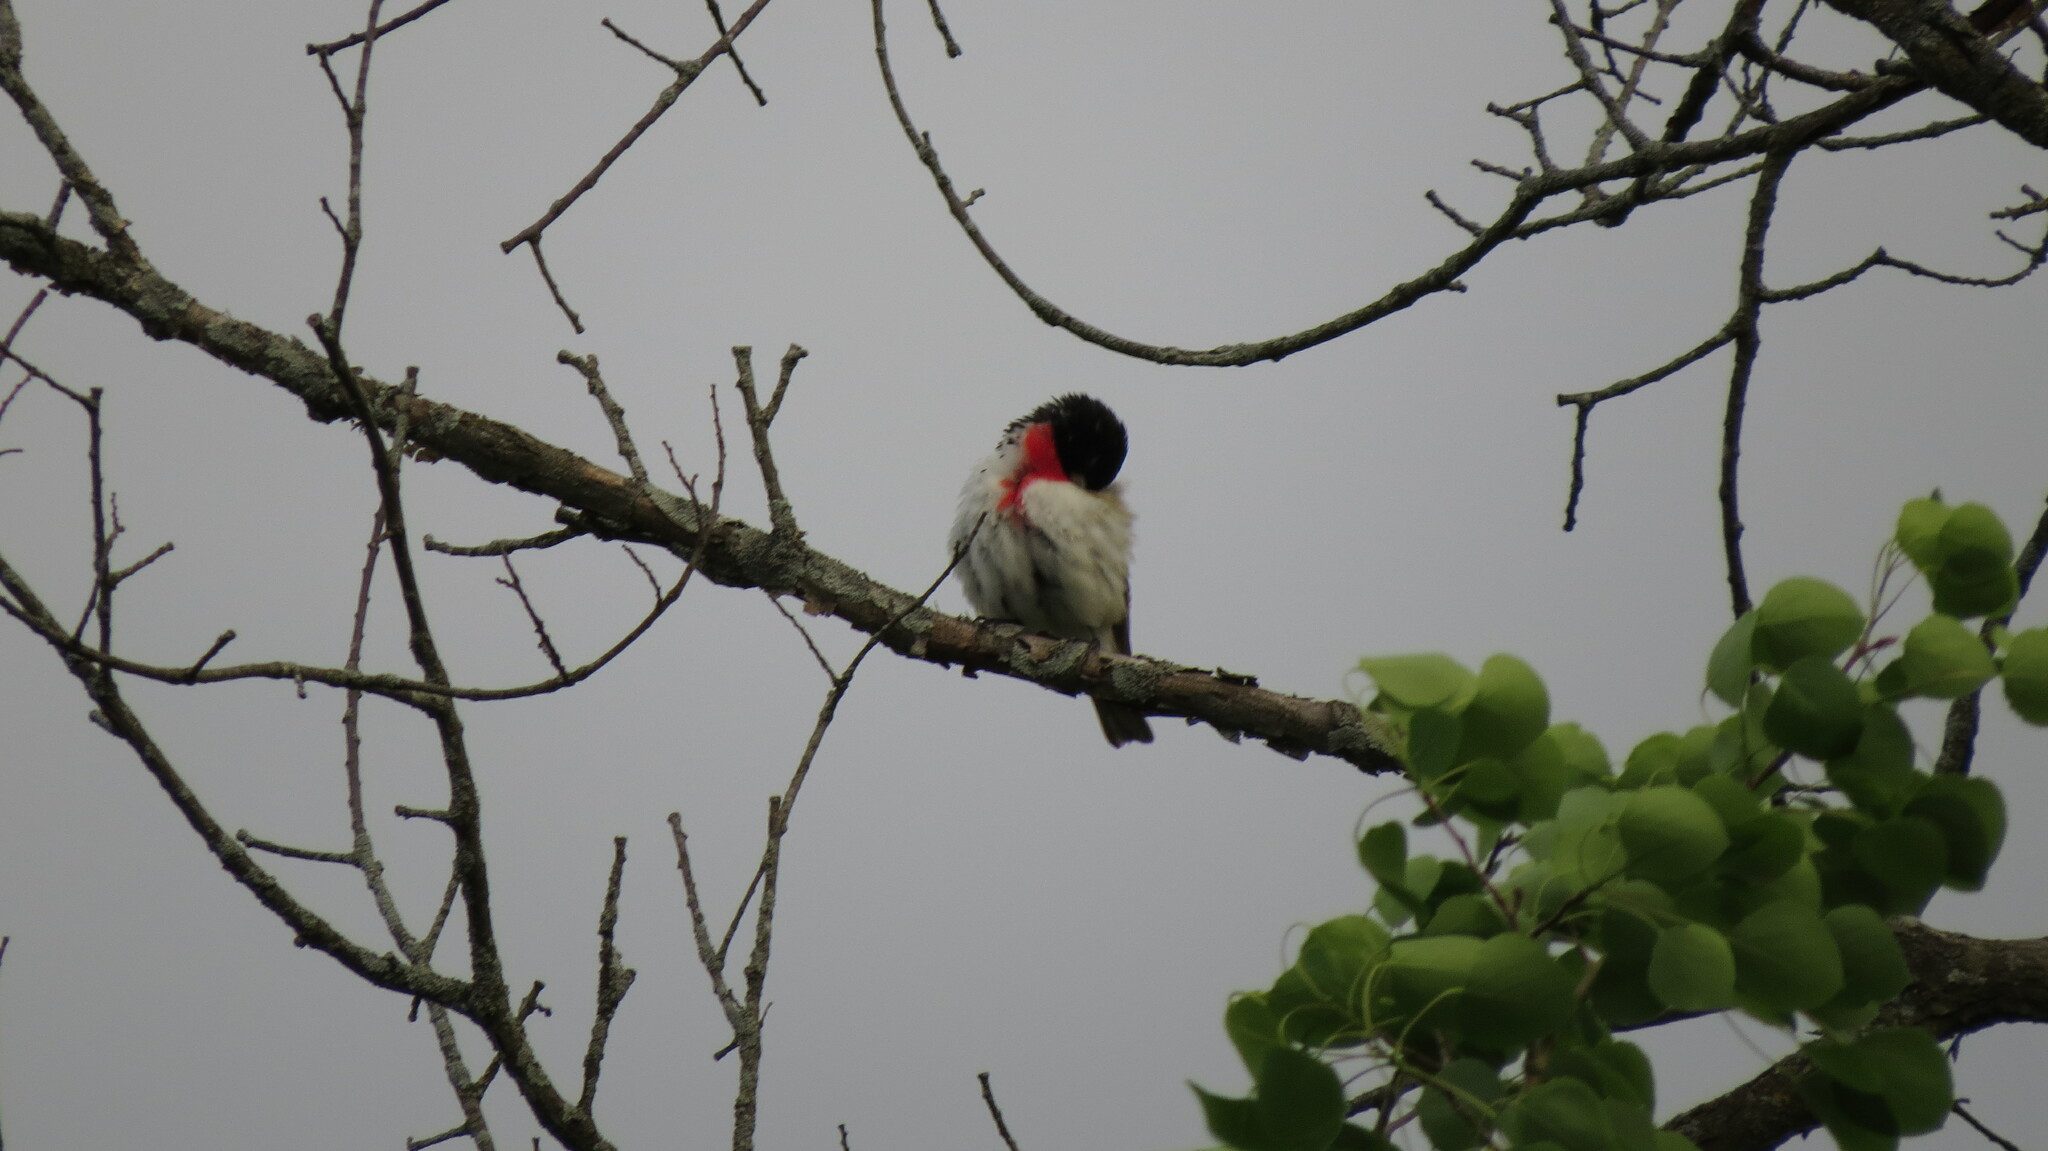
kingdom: Animalia
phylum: Chordata
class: Aves
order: Passeriformes
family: Cardinalidae
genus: Pheucticus
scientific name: Pheucticus ludovicianus
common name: Rose-breasted grosbeak
